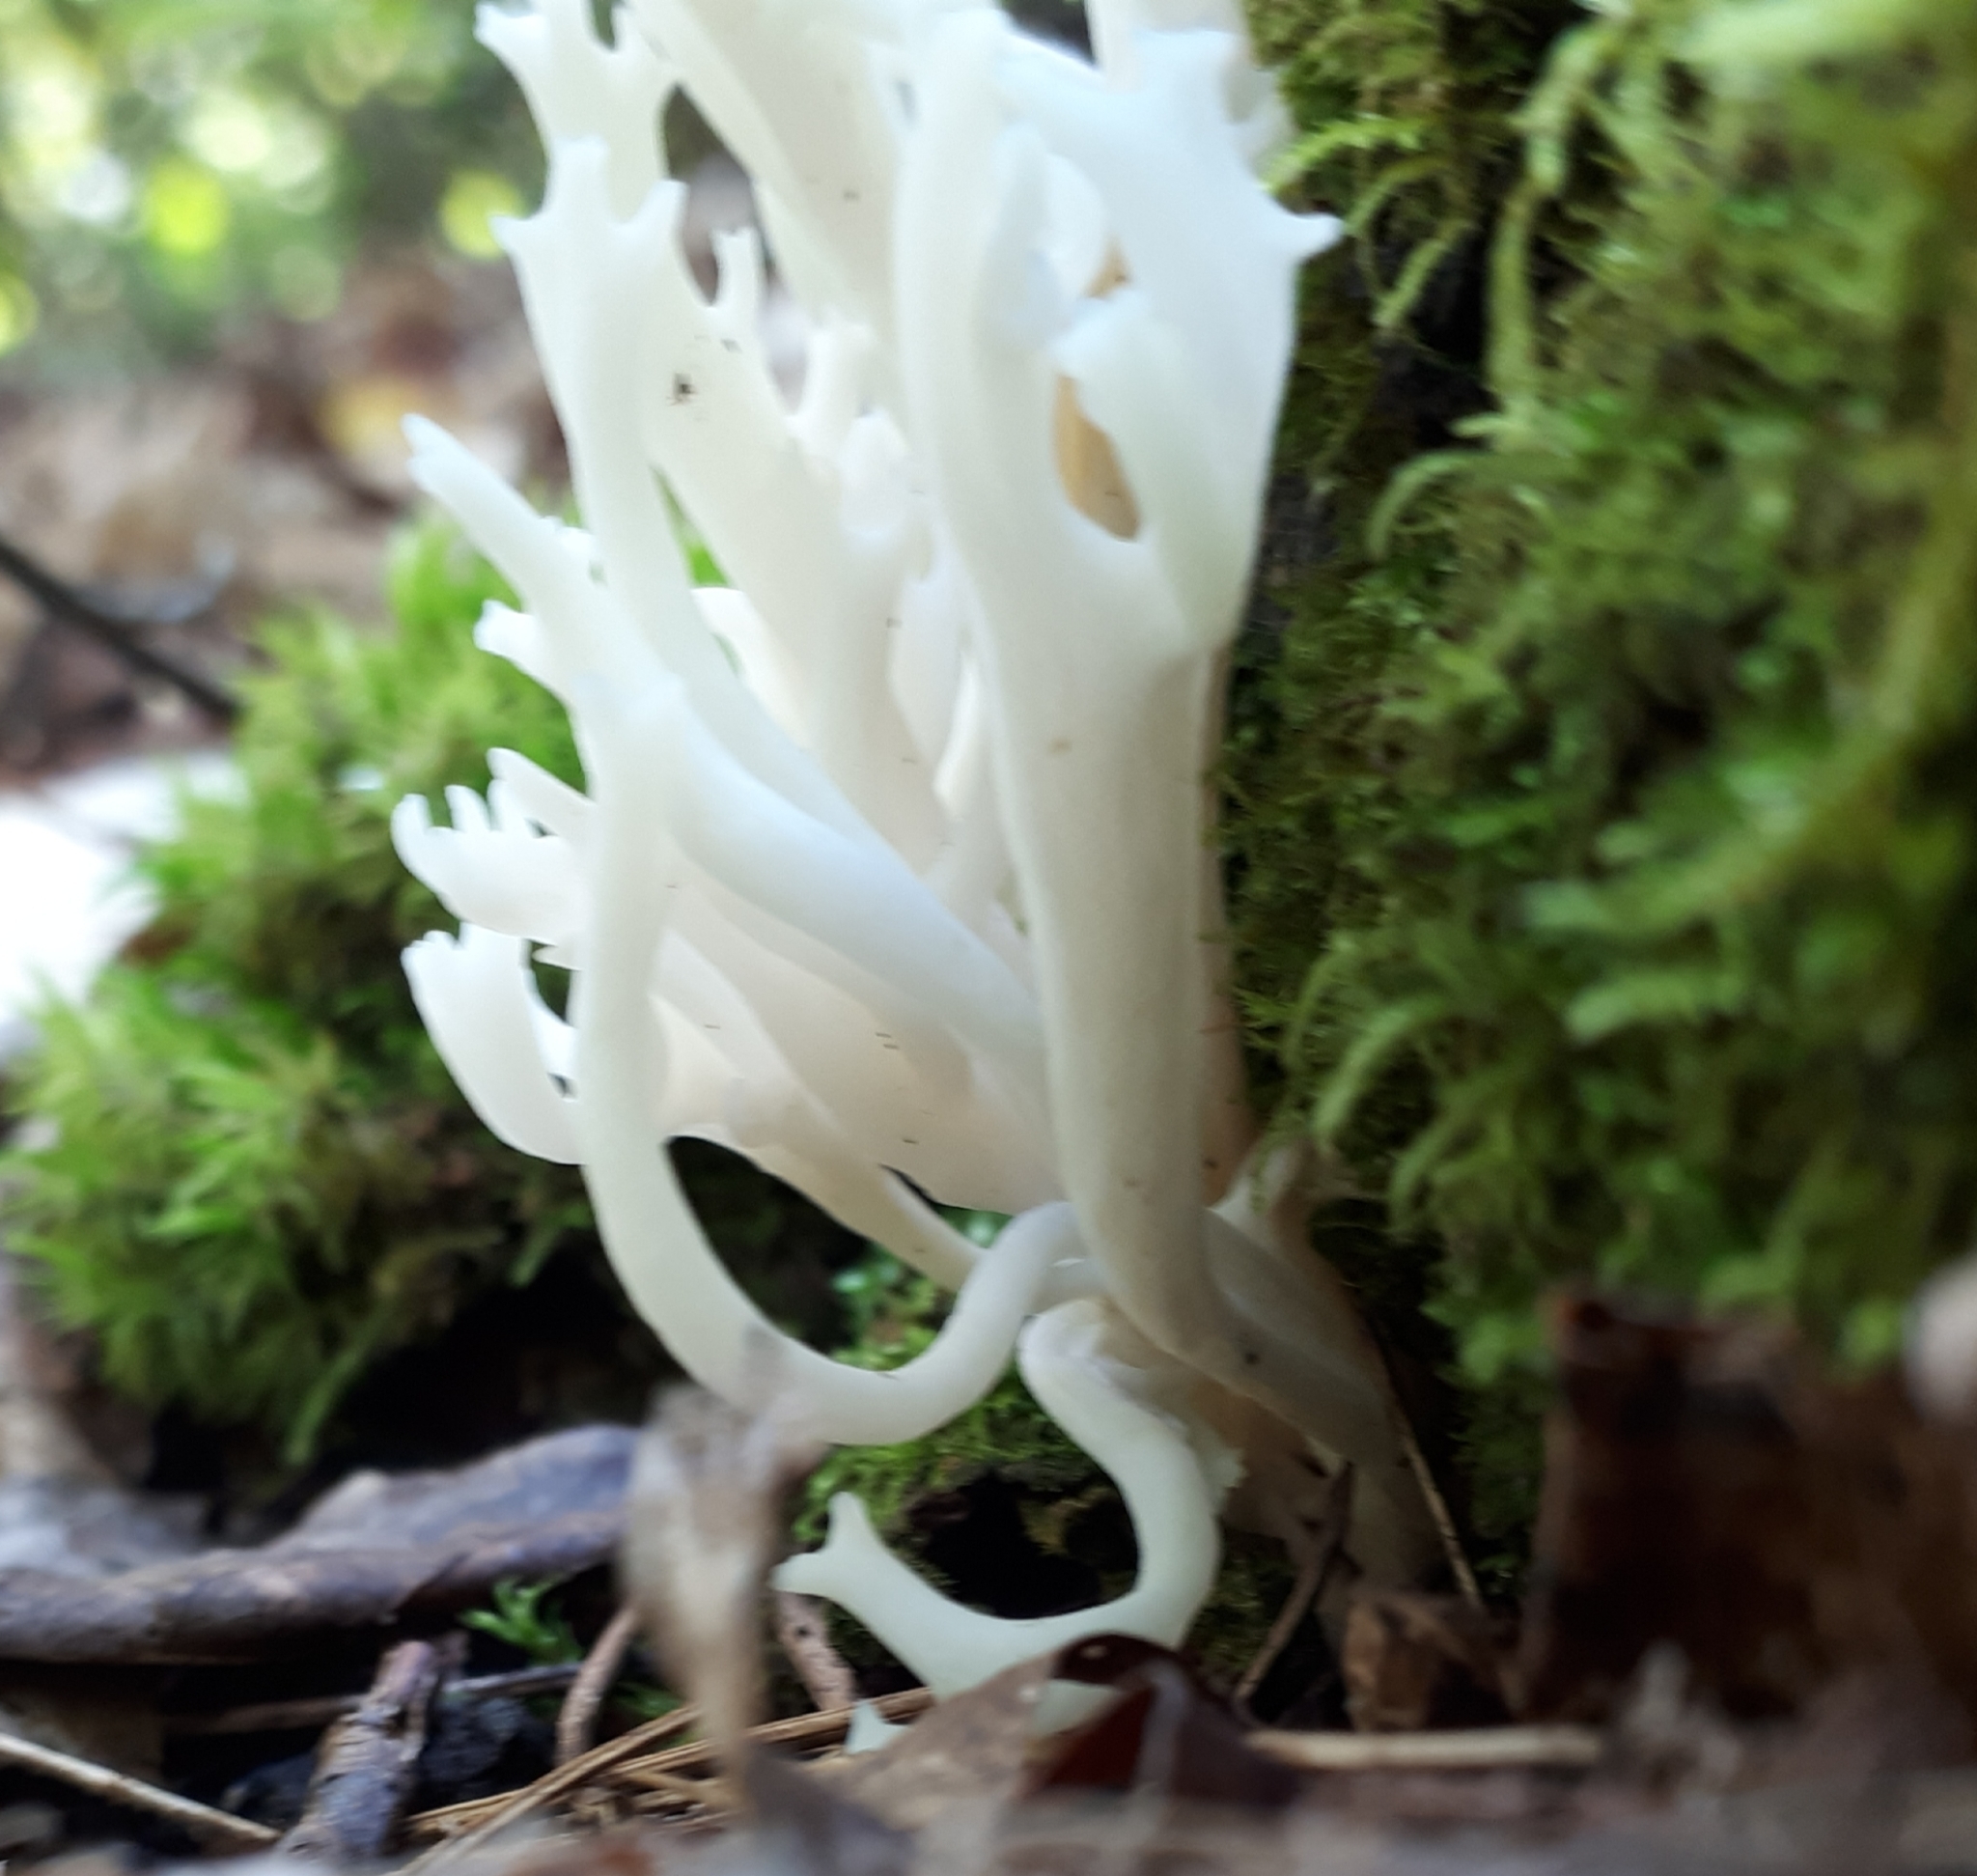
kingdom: Fungi
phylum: Basidiomycota
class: Agaricomycetes
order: Agaricales
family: Clavariaceae
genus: Ramariopsis
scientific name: Ramariopsis kunzei
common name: Ivory coral
